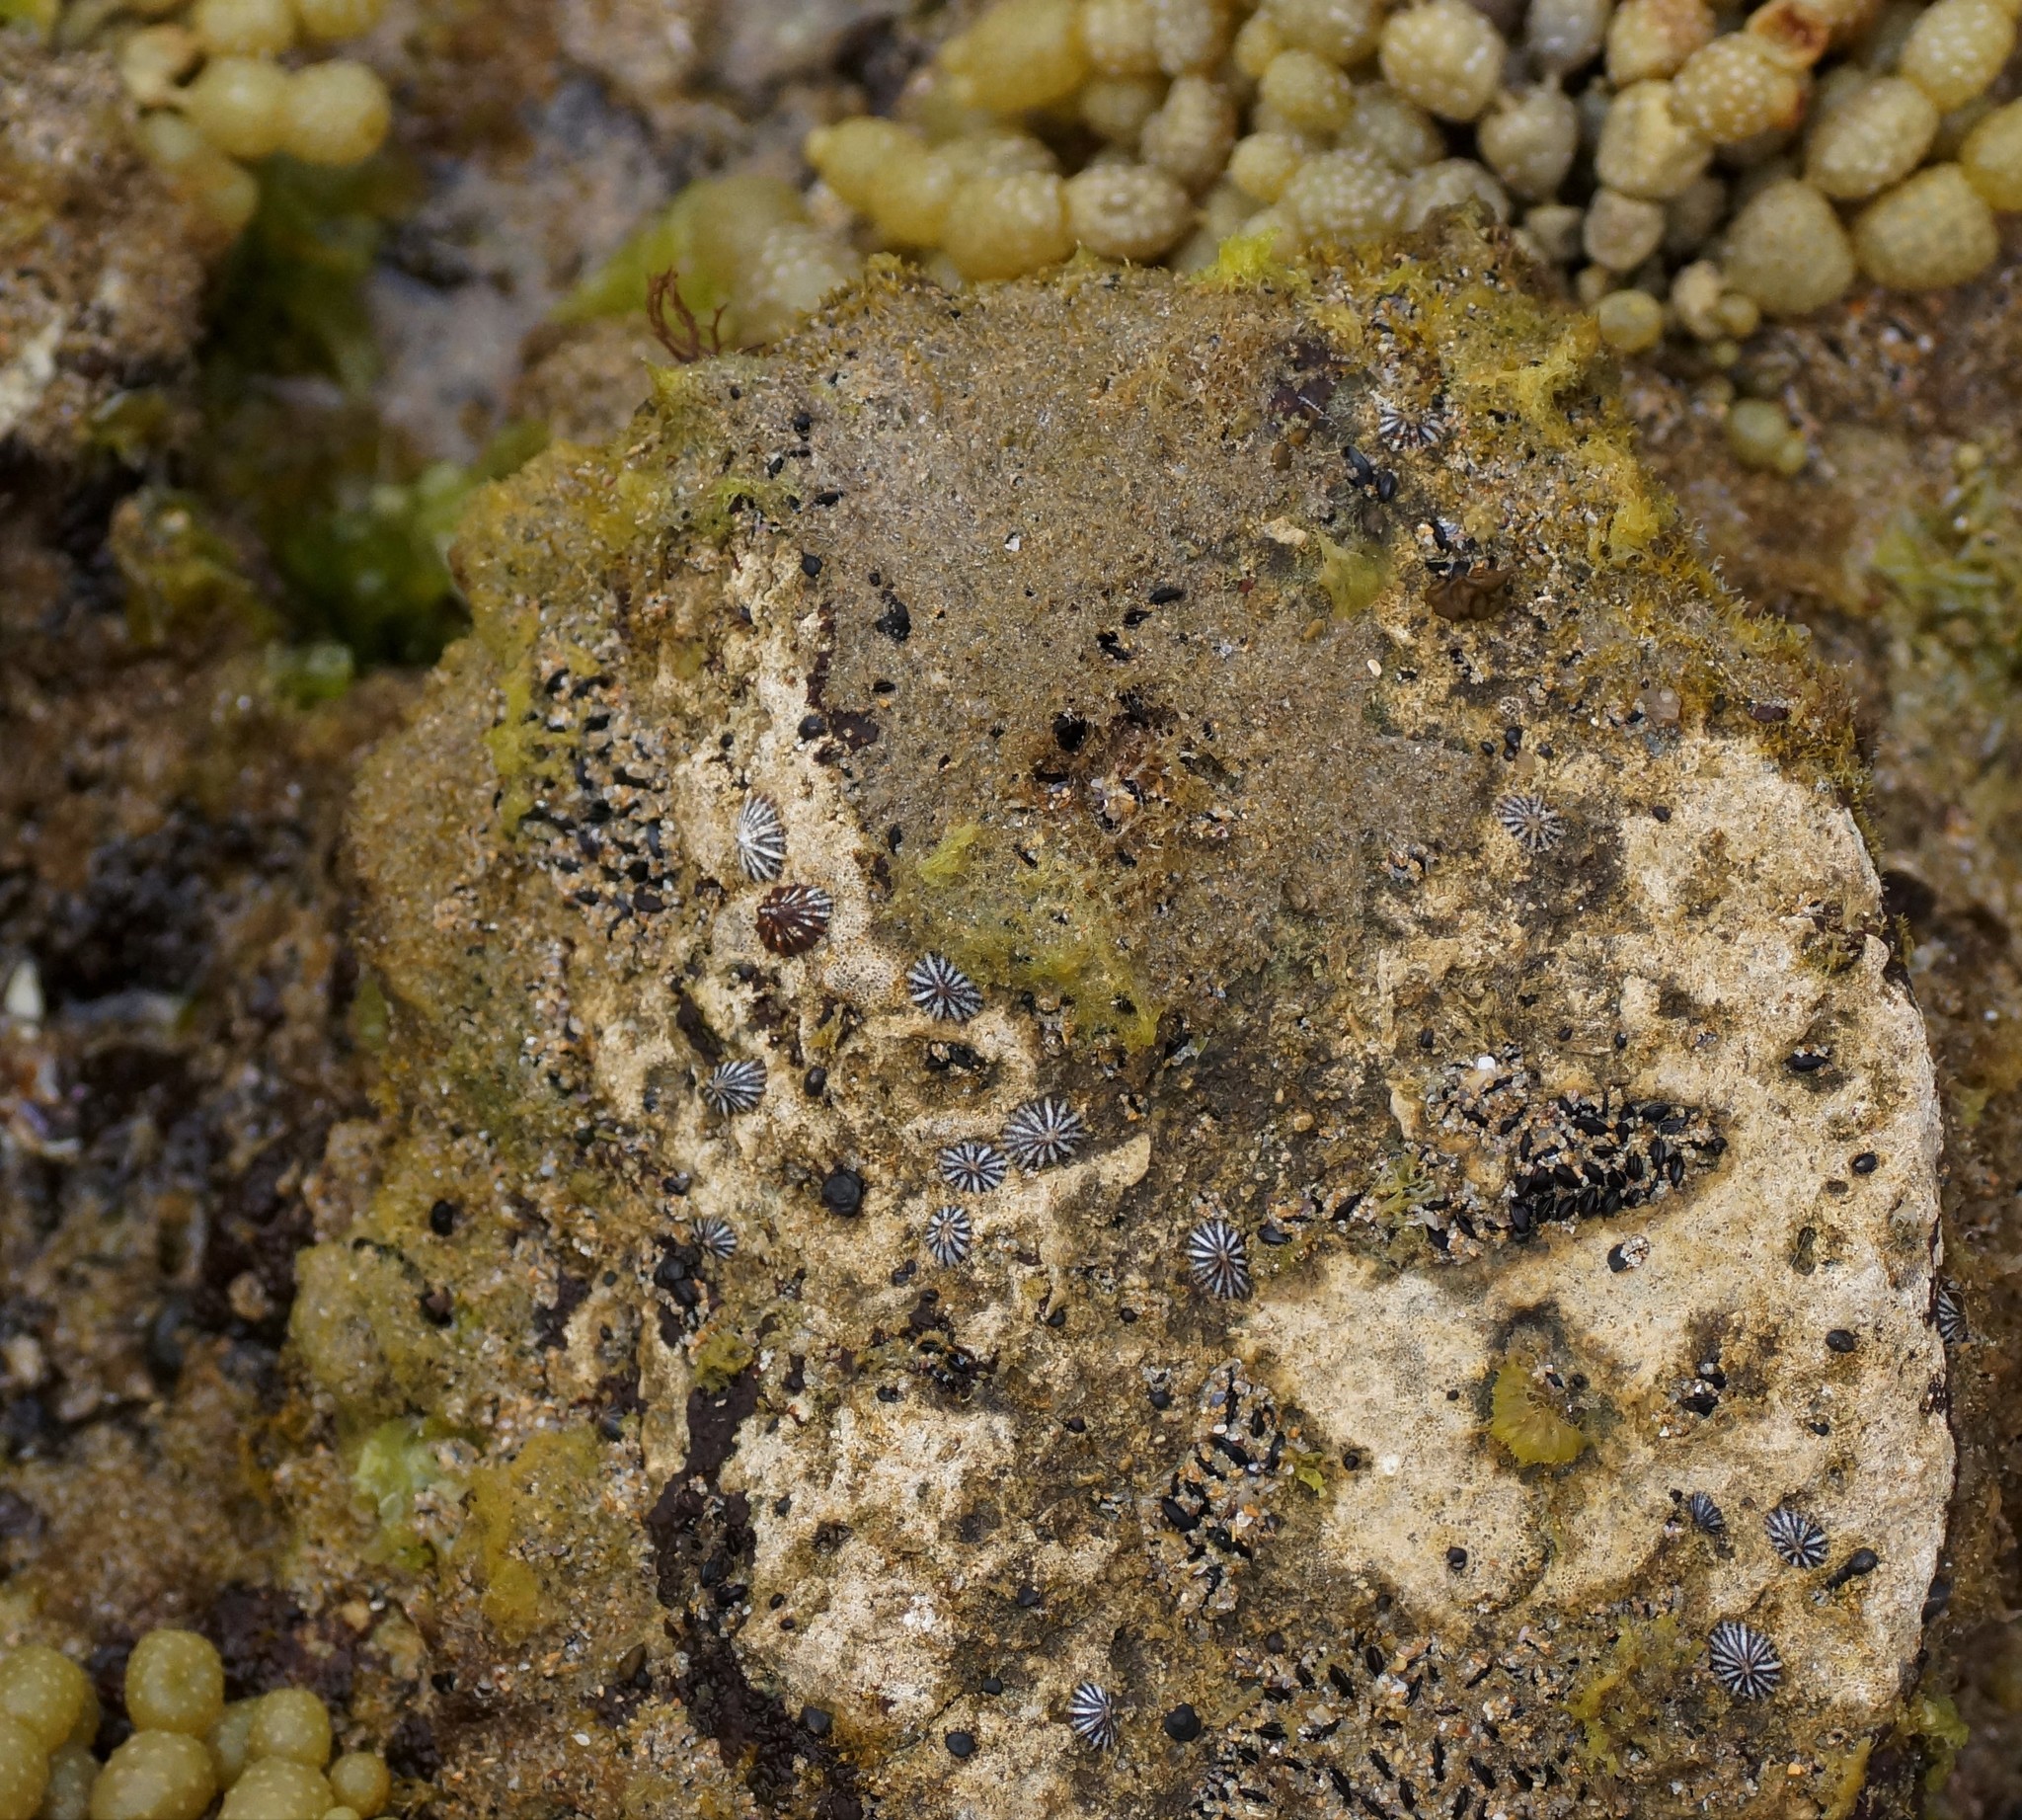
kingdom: Animalia
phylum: Mollusca
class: Gastropoda
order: Siphonariida
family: Siphonariidae
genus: Siphonaria
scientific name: Siphonaria diemenensis
